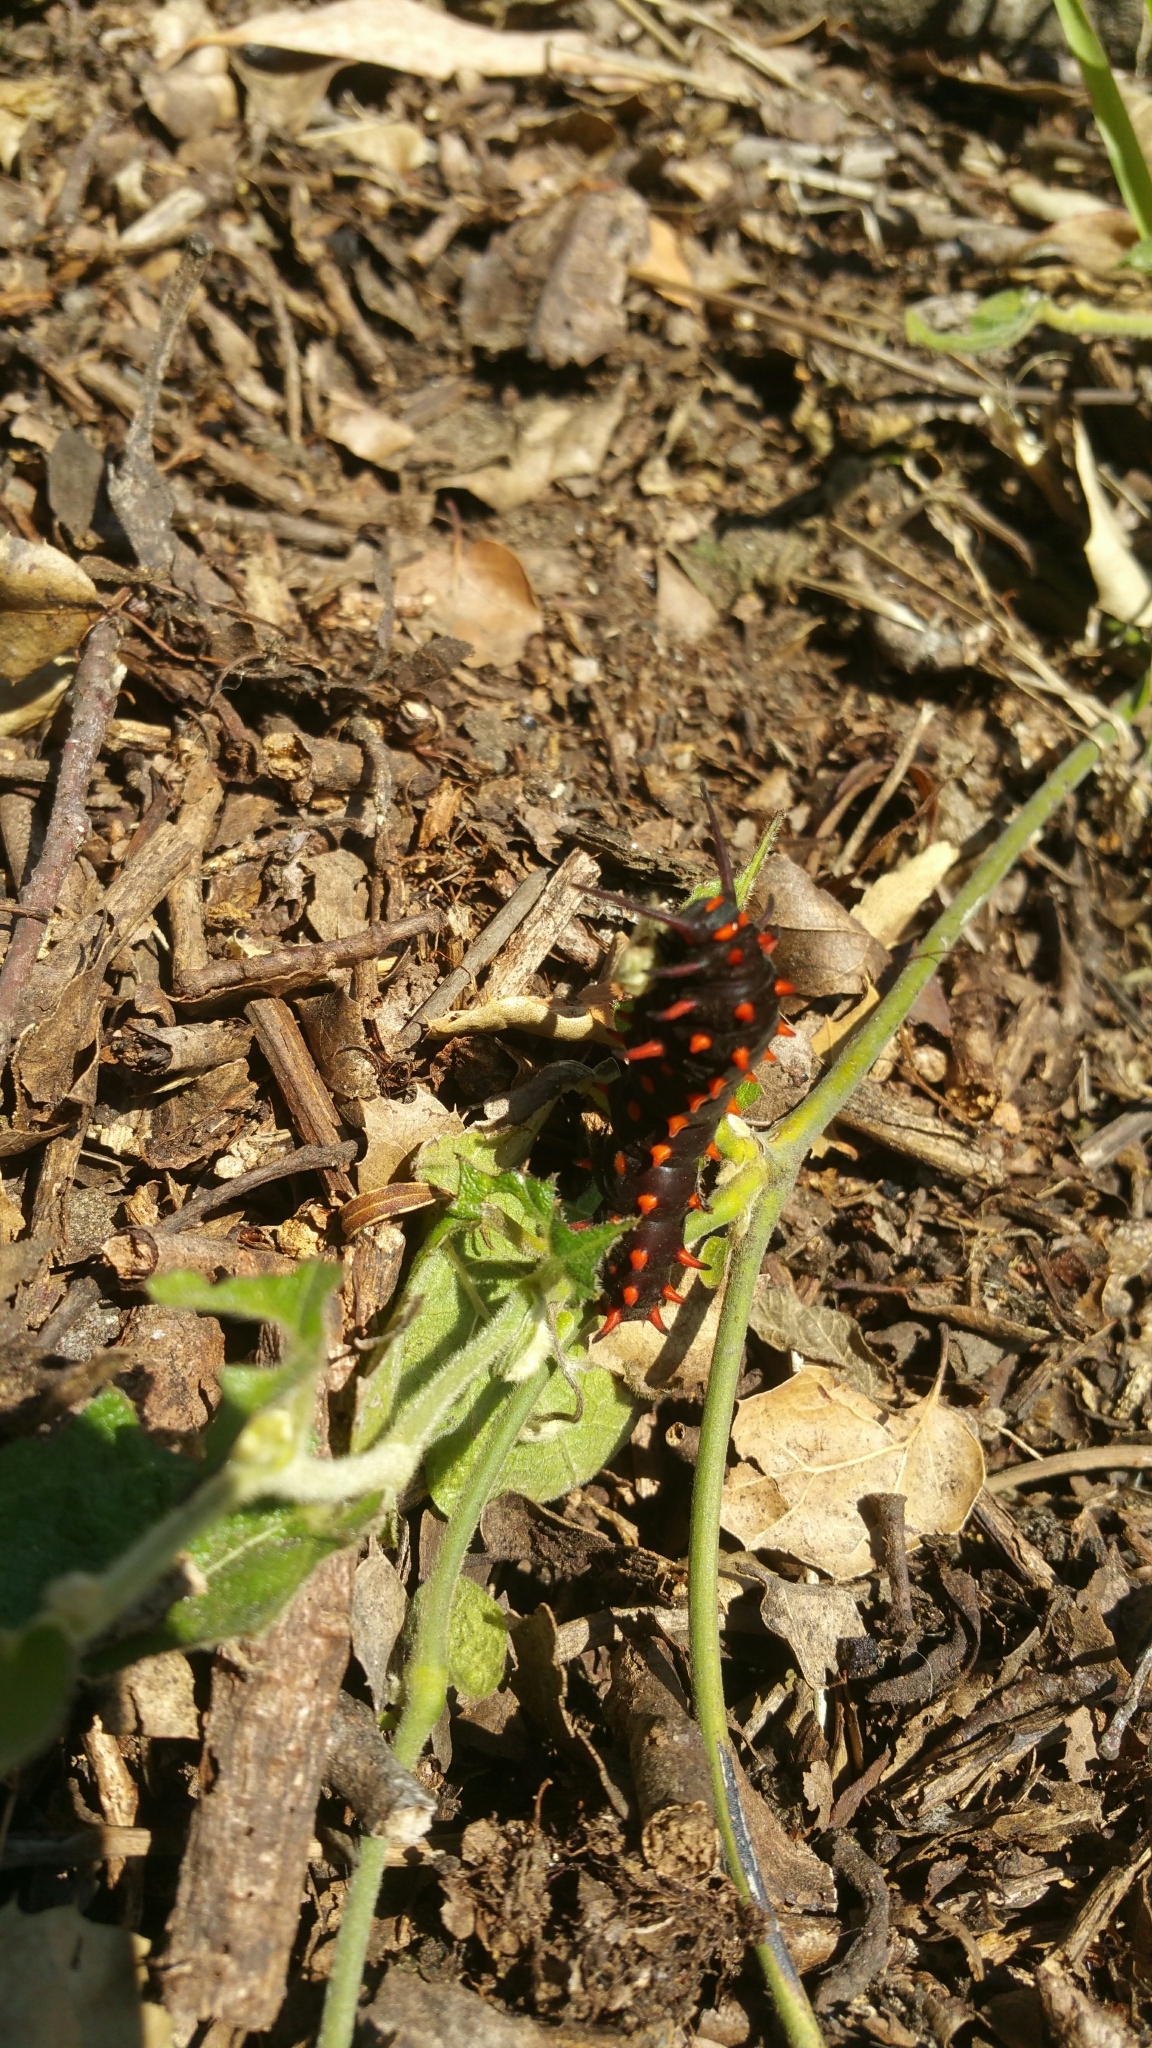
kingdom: Animalia
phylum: Arthropoda
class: Insecta
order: Lepidoptera
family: Papilionidae
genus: Battus
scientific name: Battus philenor
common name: Pipevine swallowtail
